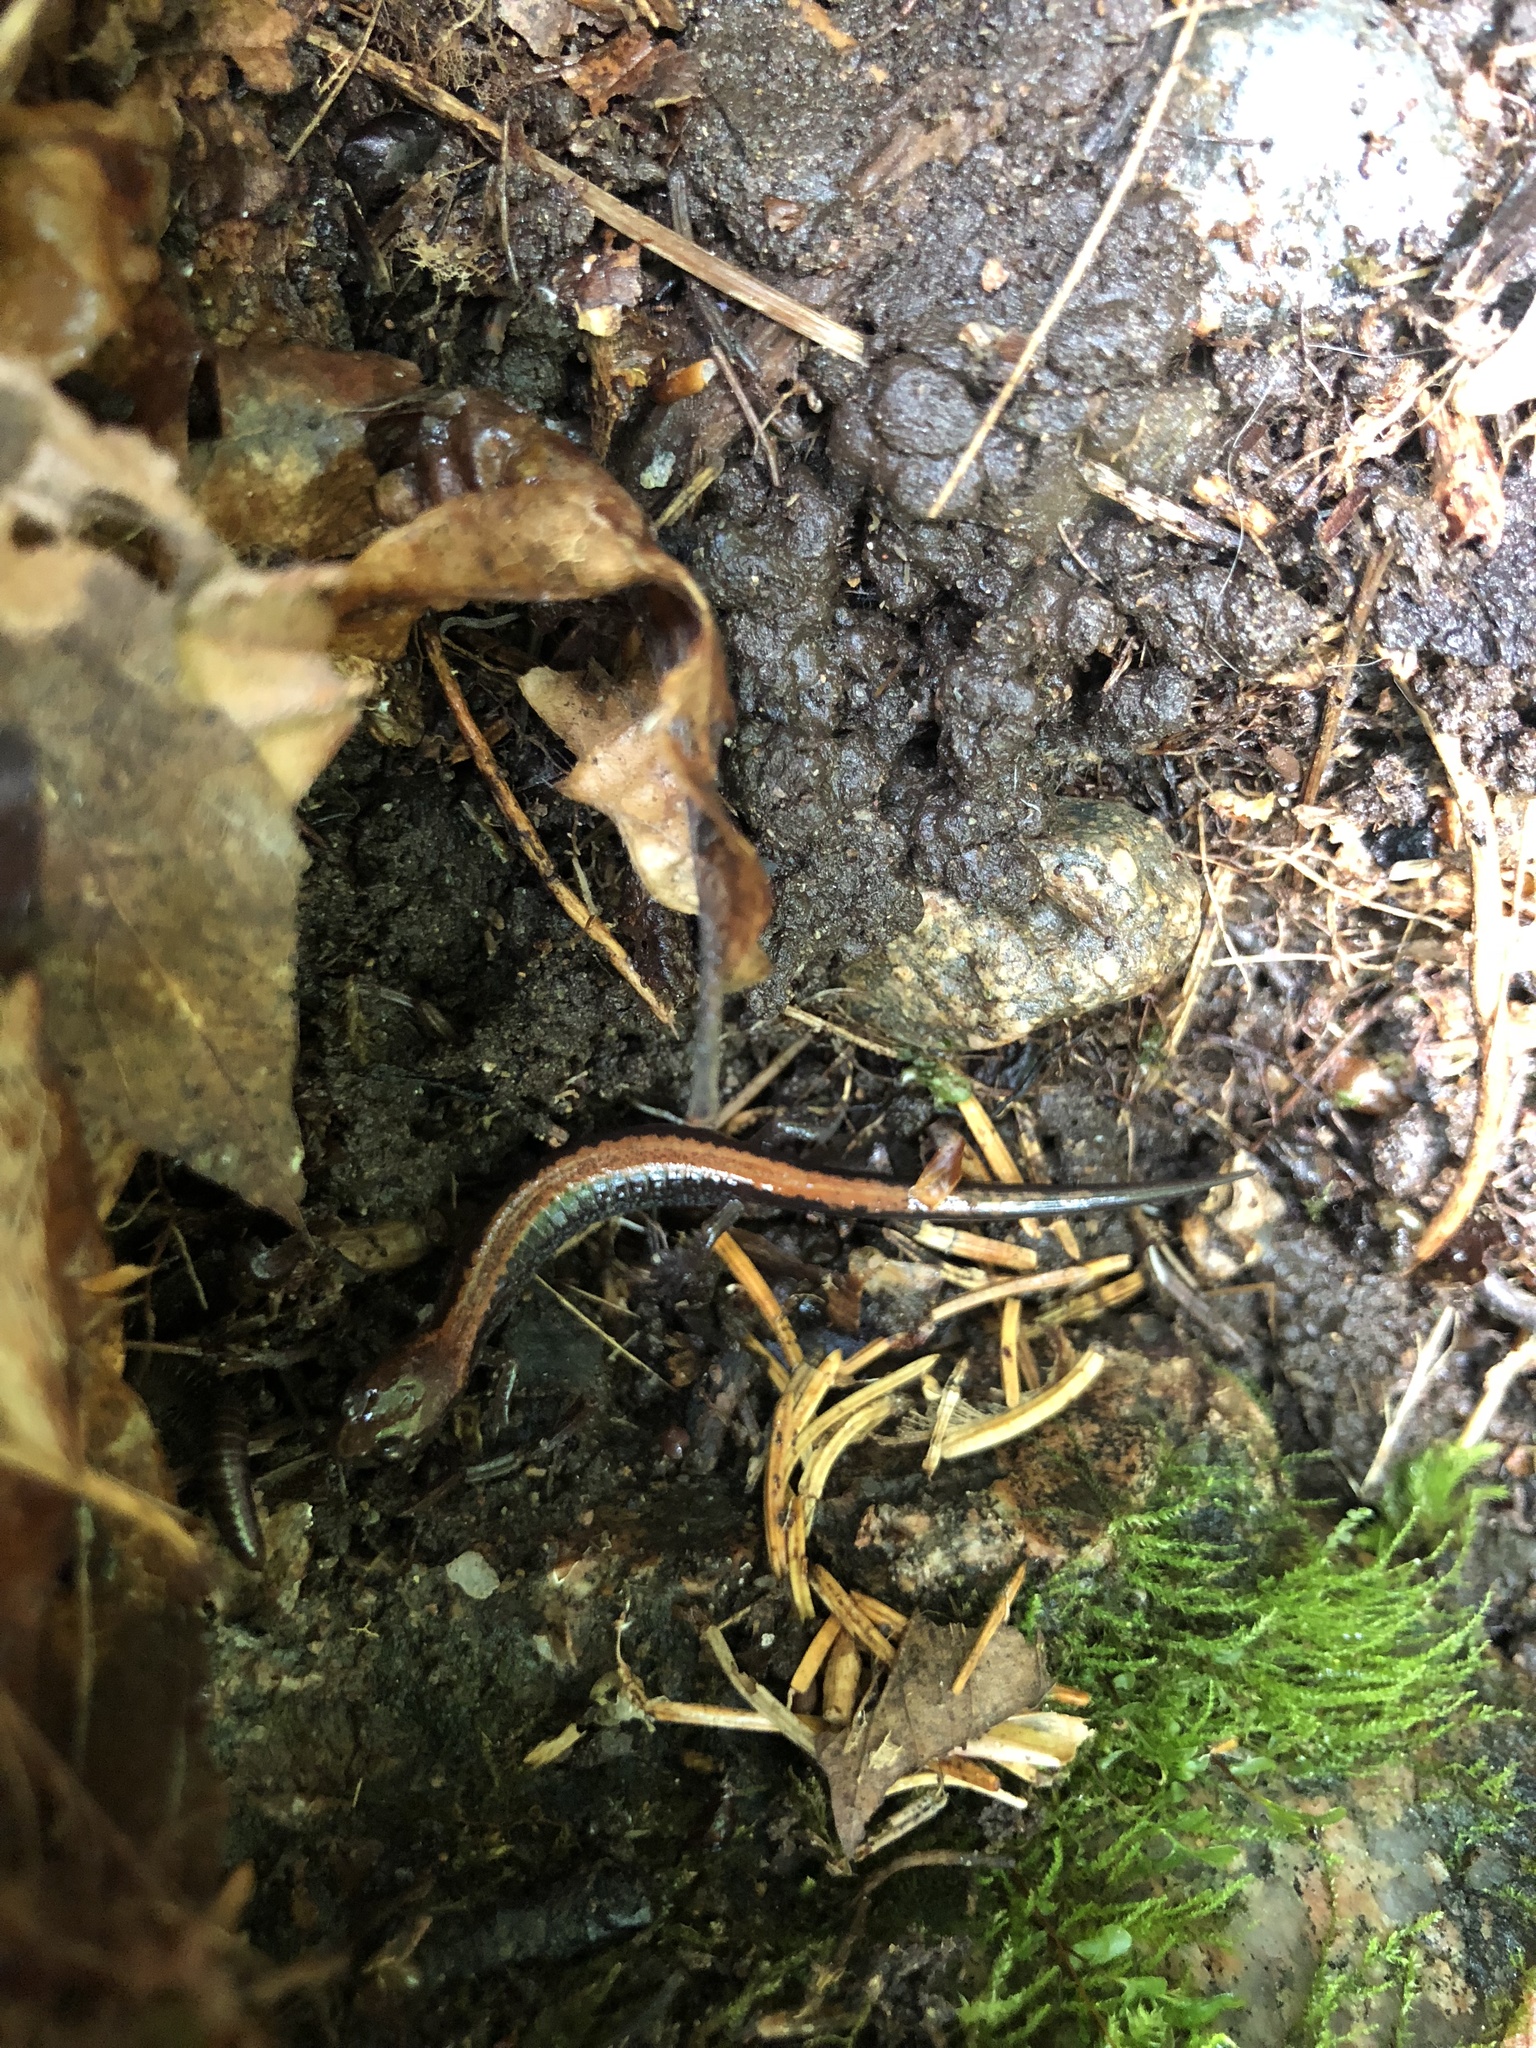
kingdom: Animalia
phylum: Chordata
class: Amphibia
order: Caudata
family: Plethodontidae
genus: Plethodon
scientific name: Plethodon cinereus
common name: Redback salamander
